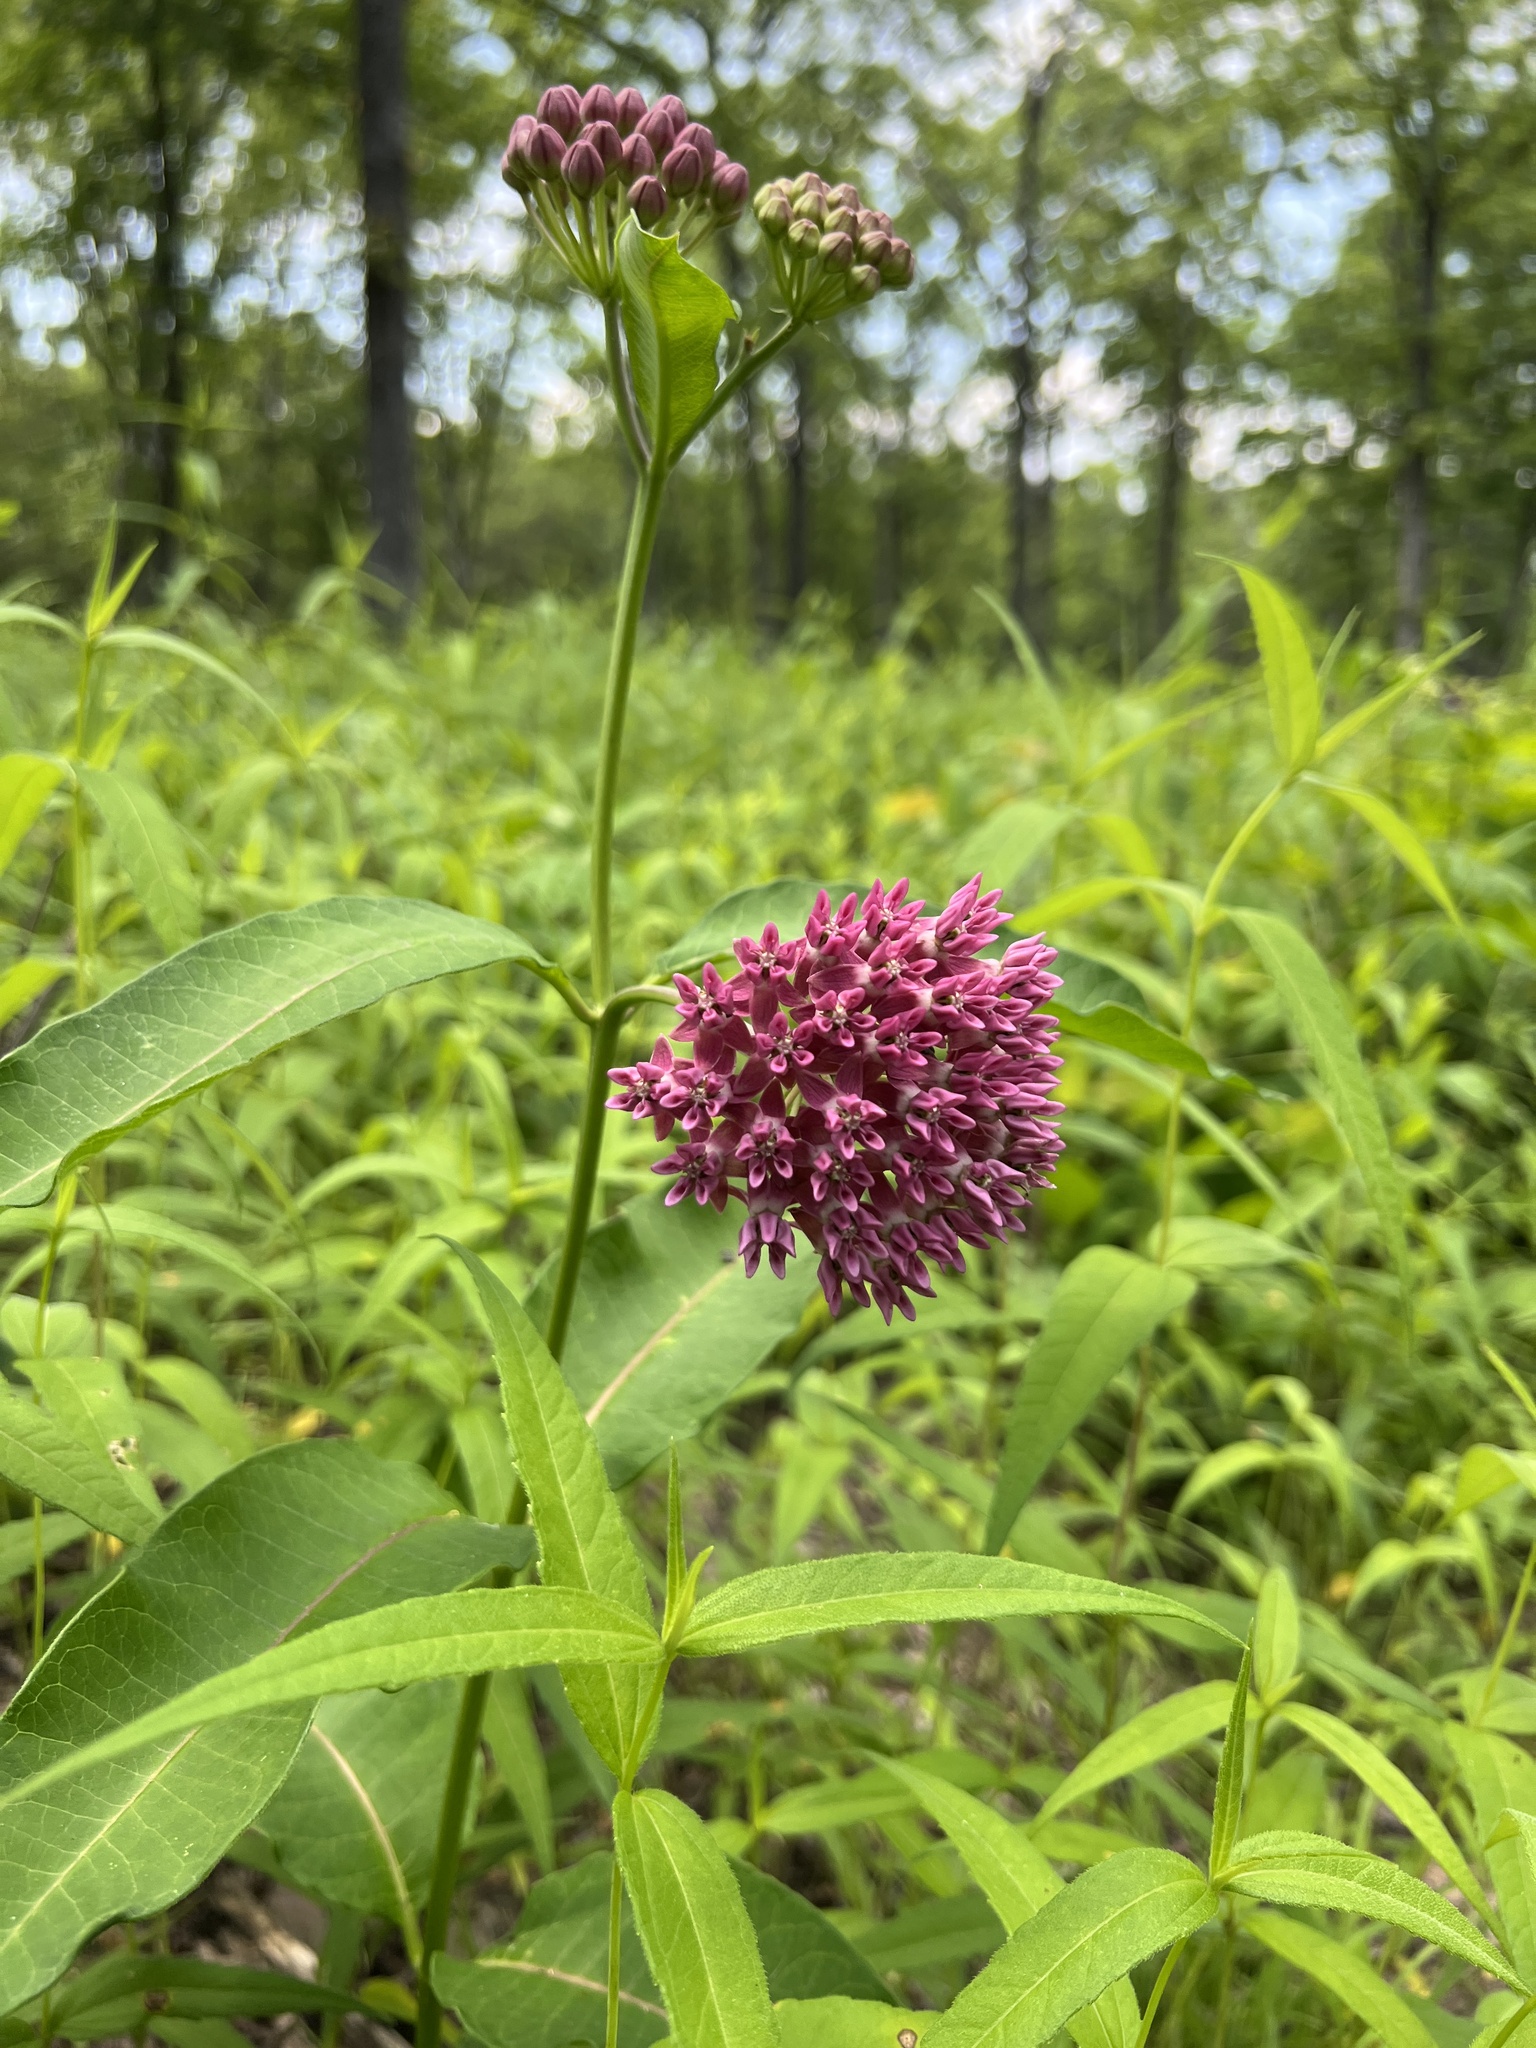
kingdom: Plantae
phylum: Tracheophyta
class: Magnoliopsida
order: Gentianales
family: Apocynaceae
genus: Asclepias
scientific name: Asclepias purpurascens
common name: Purple milkweed
